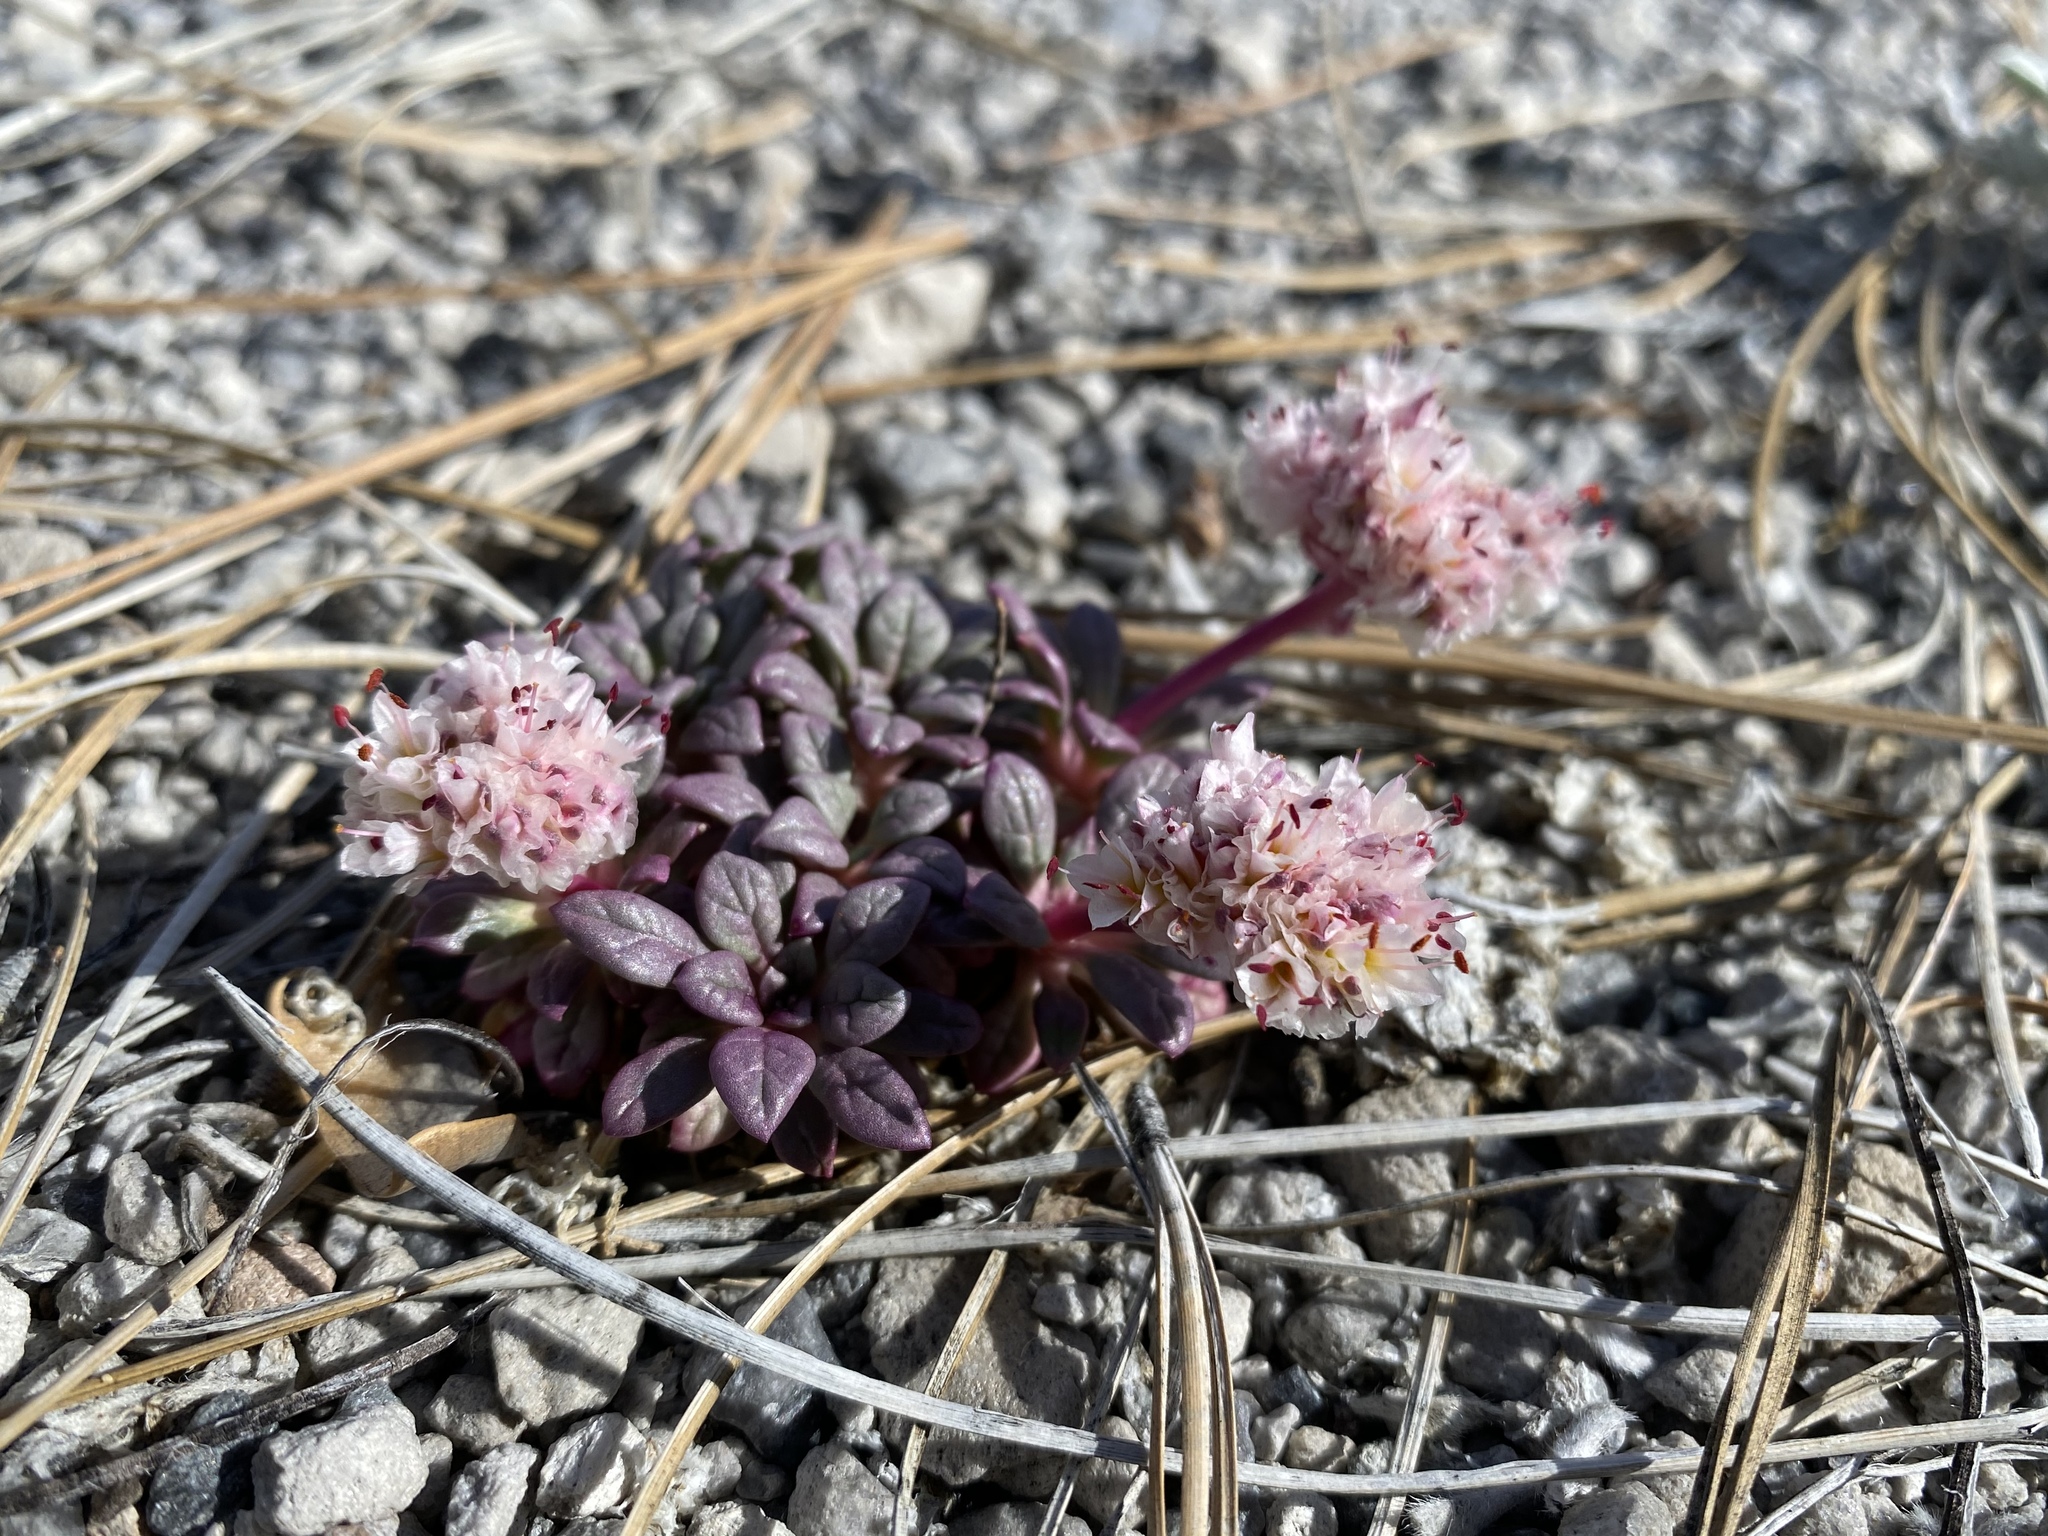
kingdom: Plantae
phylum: Tracheophyta
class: Magnoliopsida
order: Caryophyllales
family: Montiaceae
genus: Calyptridium
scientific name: Calyptridium umbellatum
